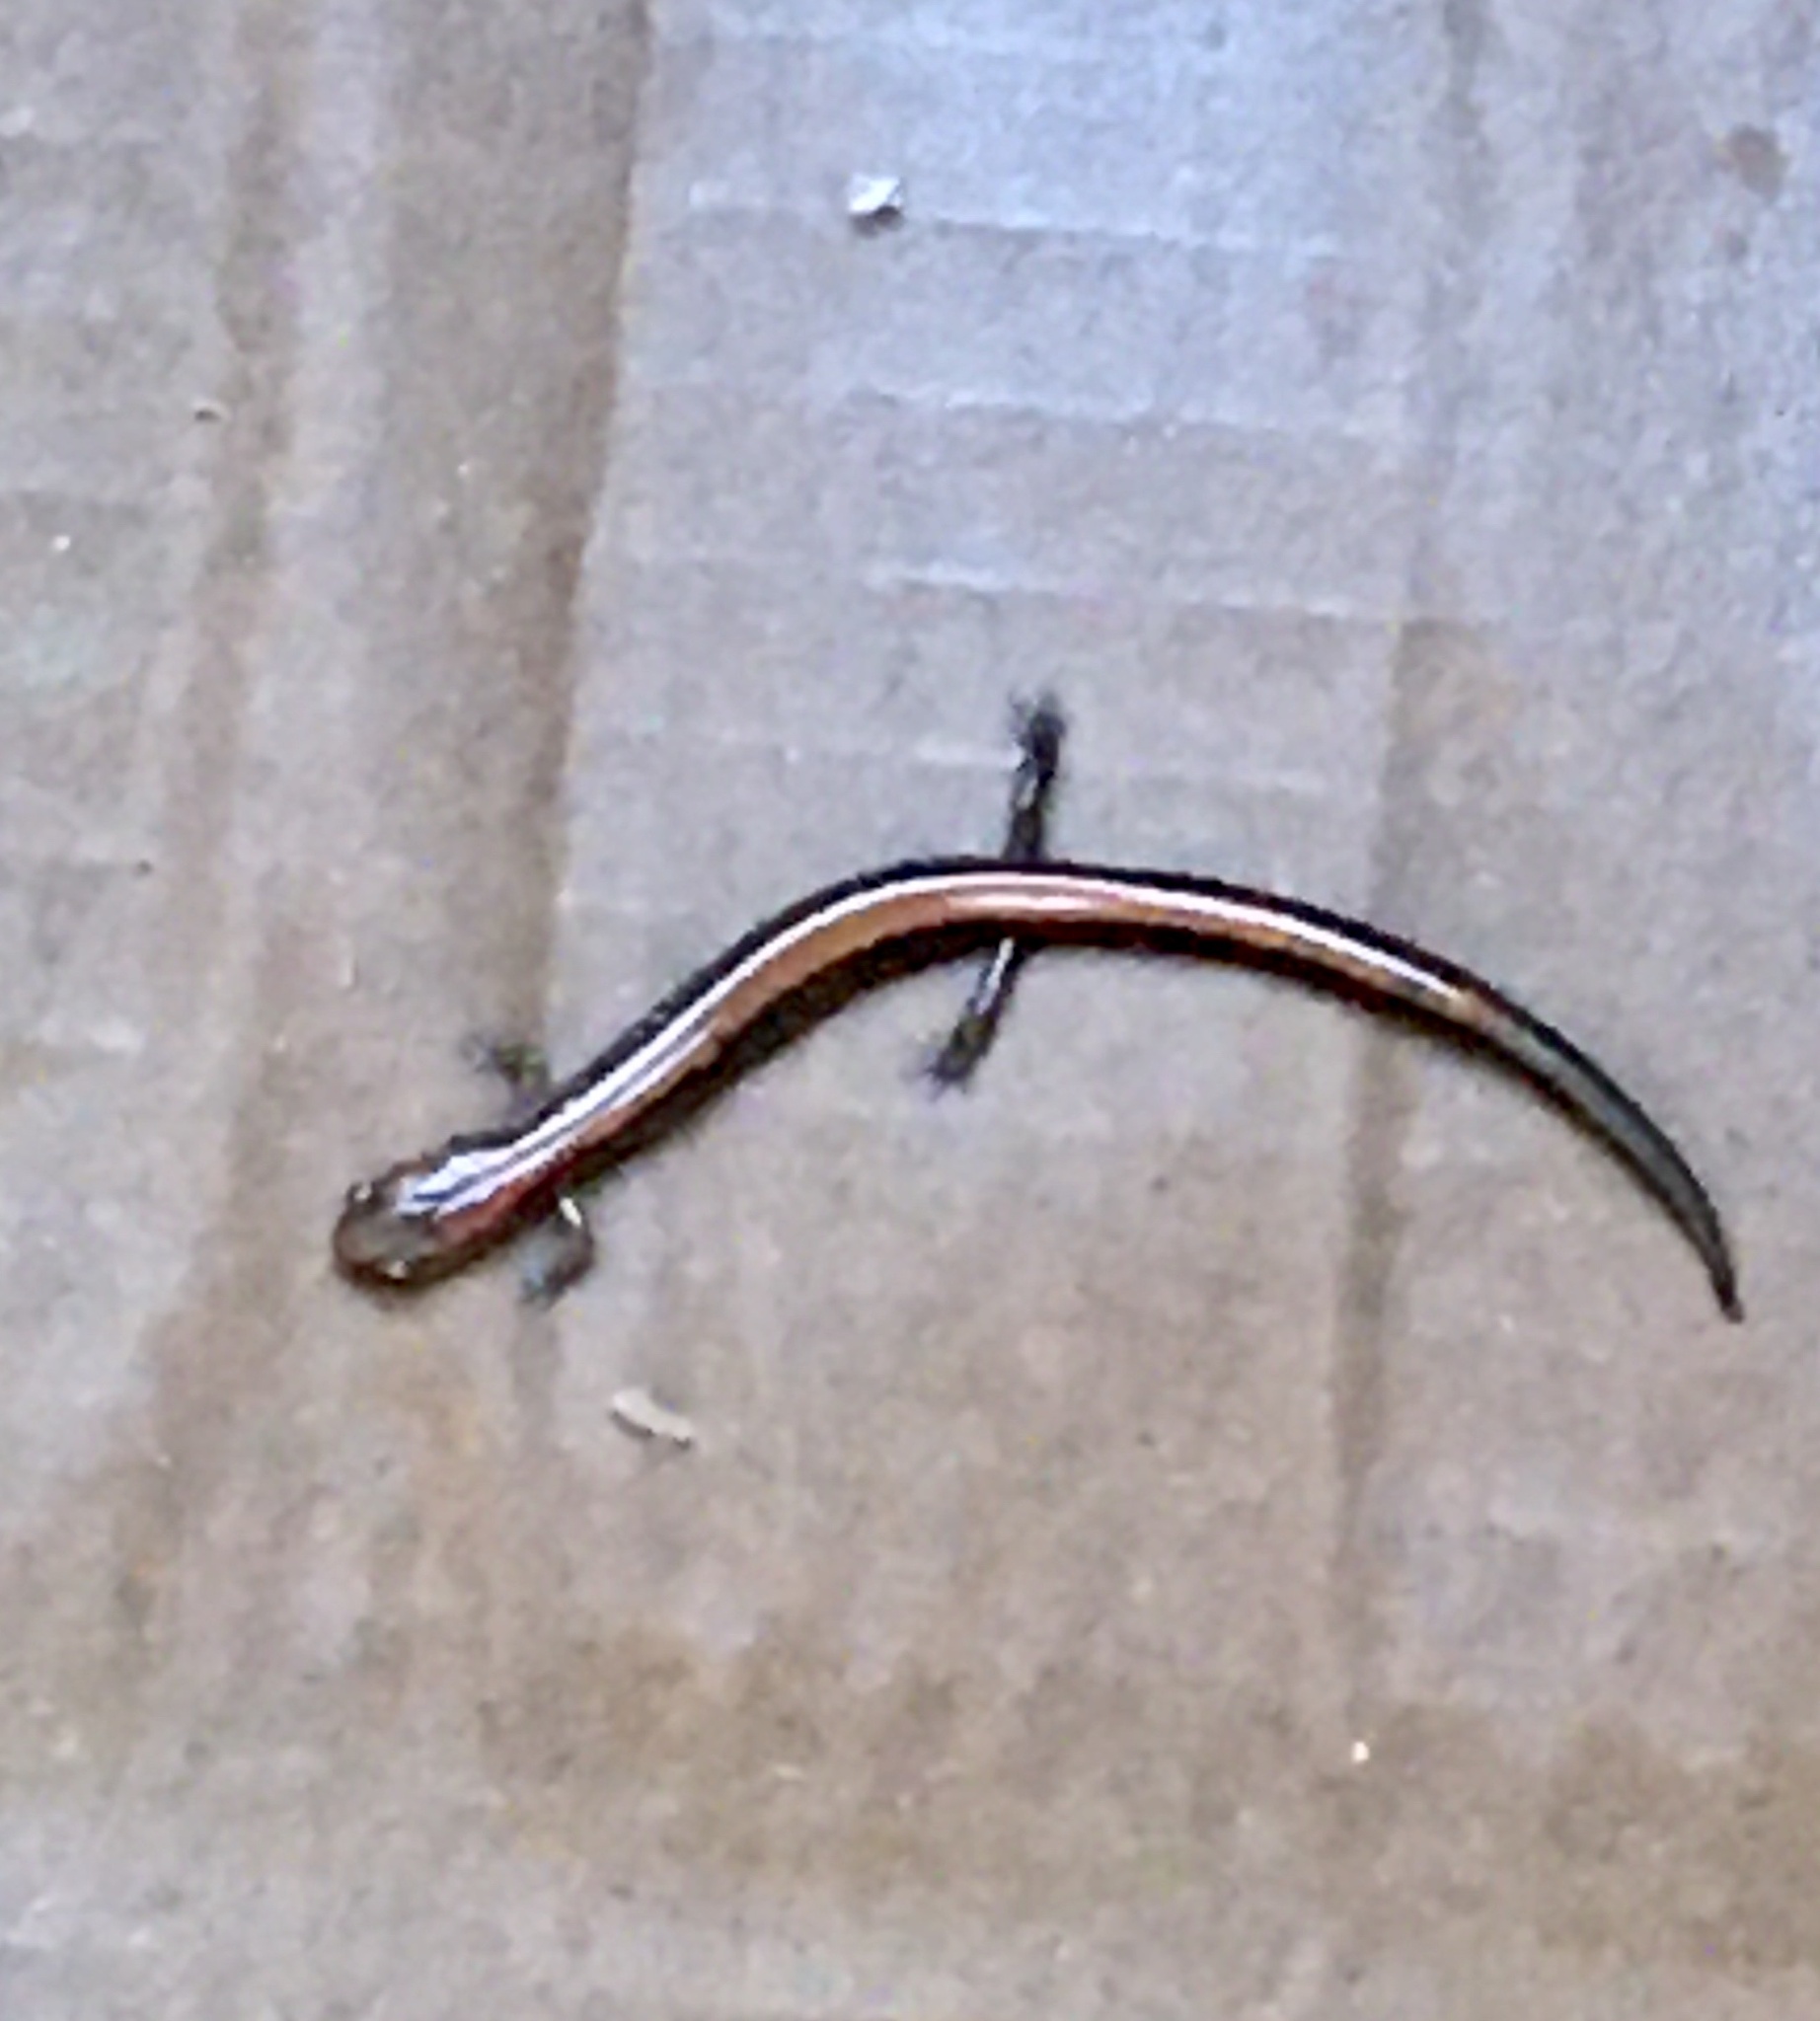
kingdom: Animalia
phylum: Chordata
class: Amphibia
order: Caudata
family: Plethodontidae
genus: Plethodon
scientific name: Plethodon cinereus
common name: Redback salamander
